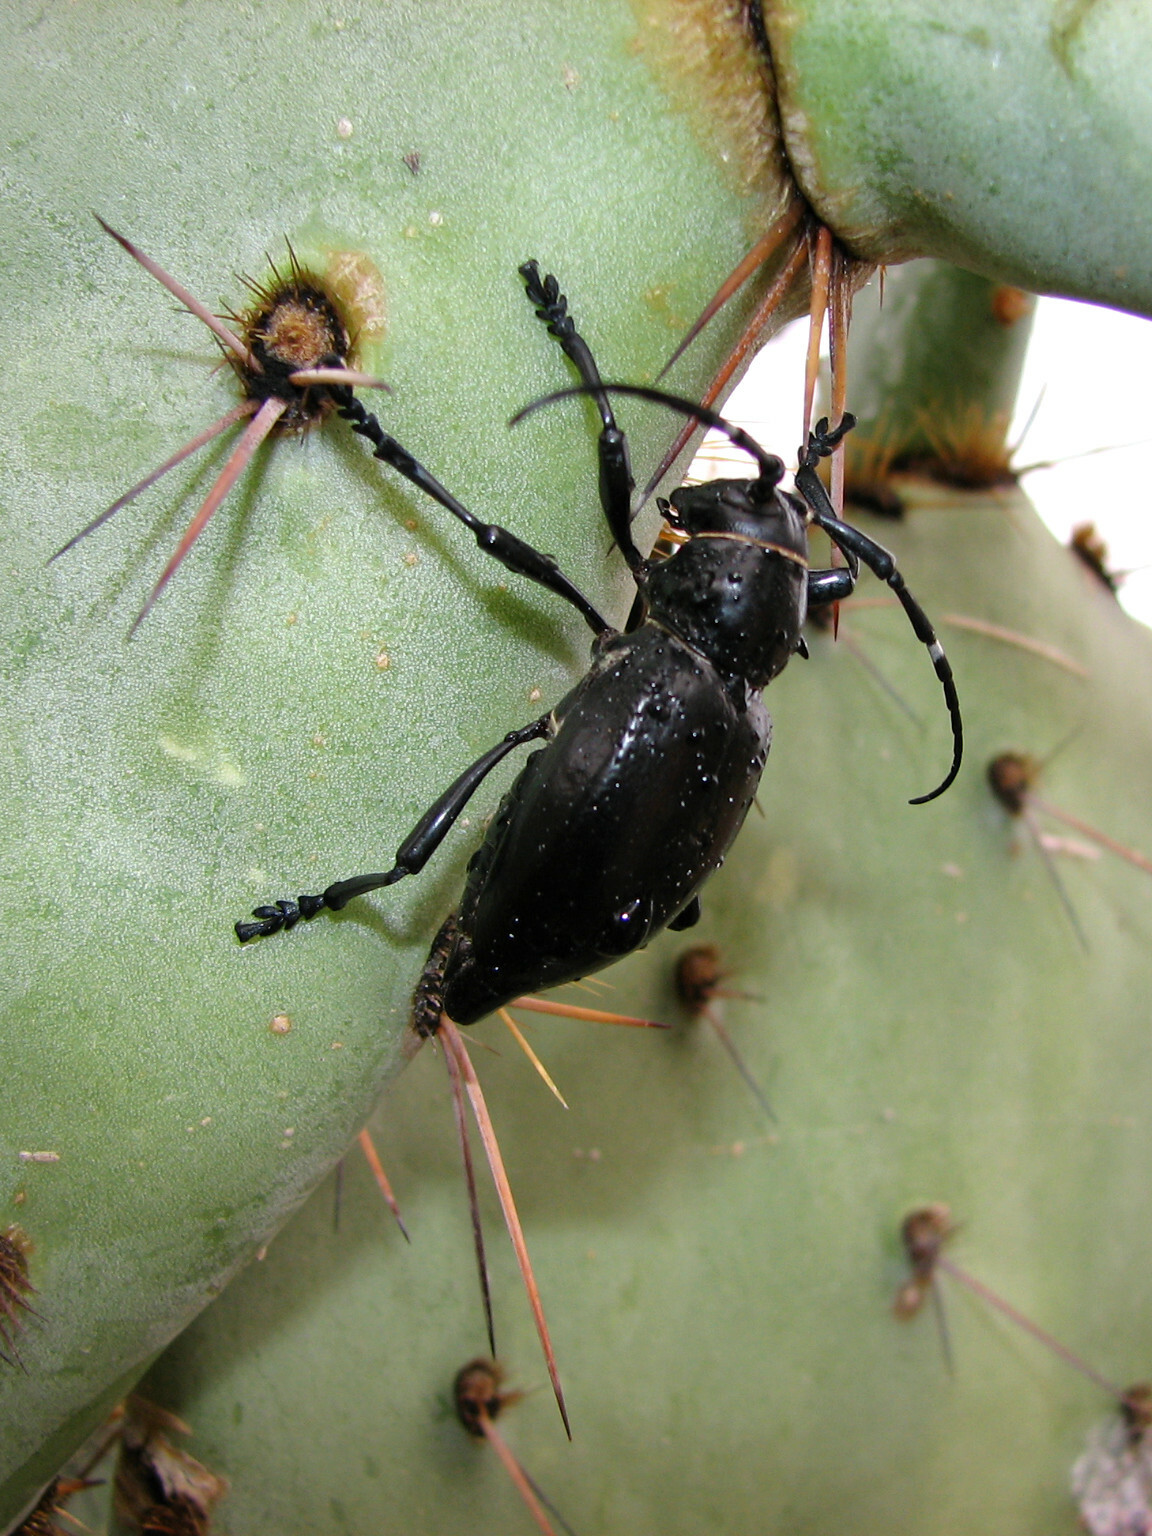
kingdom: Animalia
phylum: Arthropoda
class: Insecta
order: Coleoptera
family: Cerambycidae
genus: Moneilema
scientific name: Moneilema gigas
